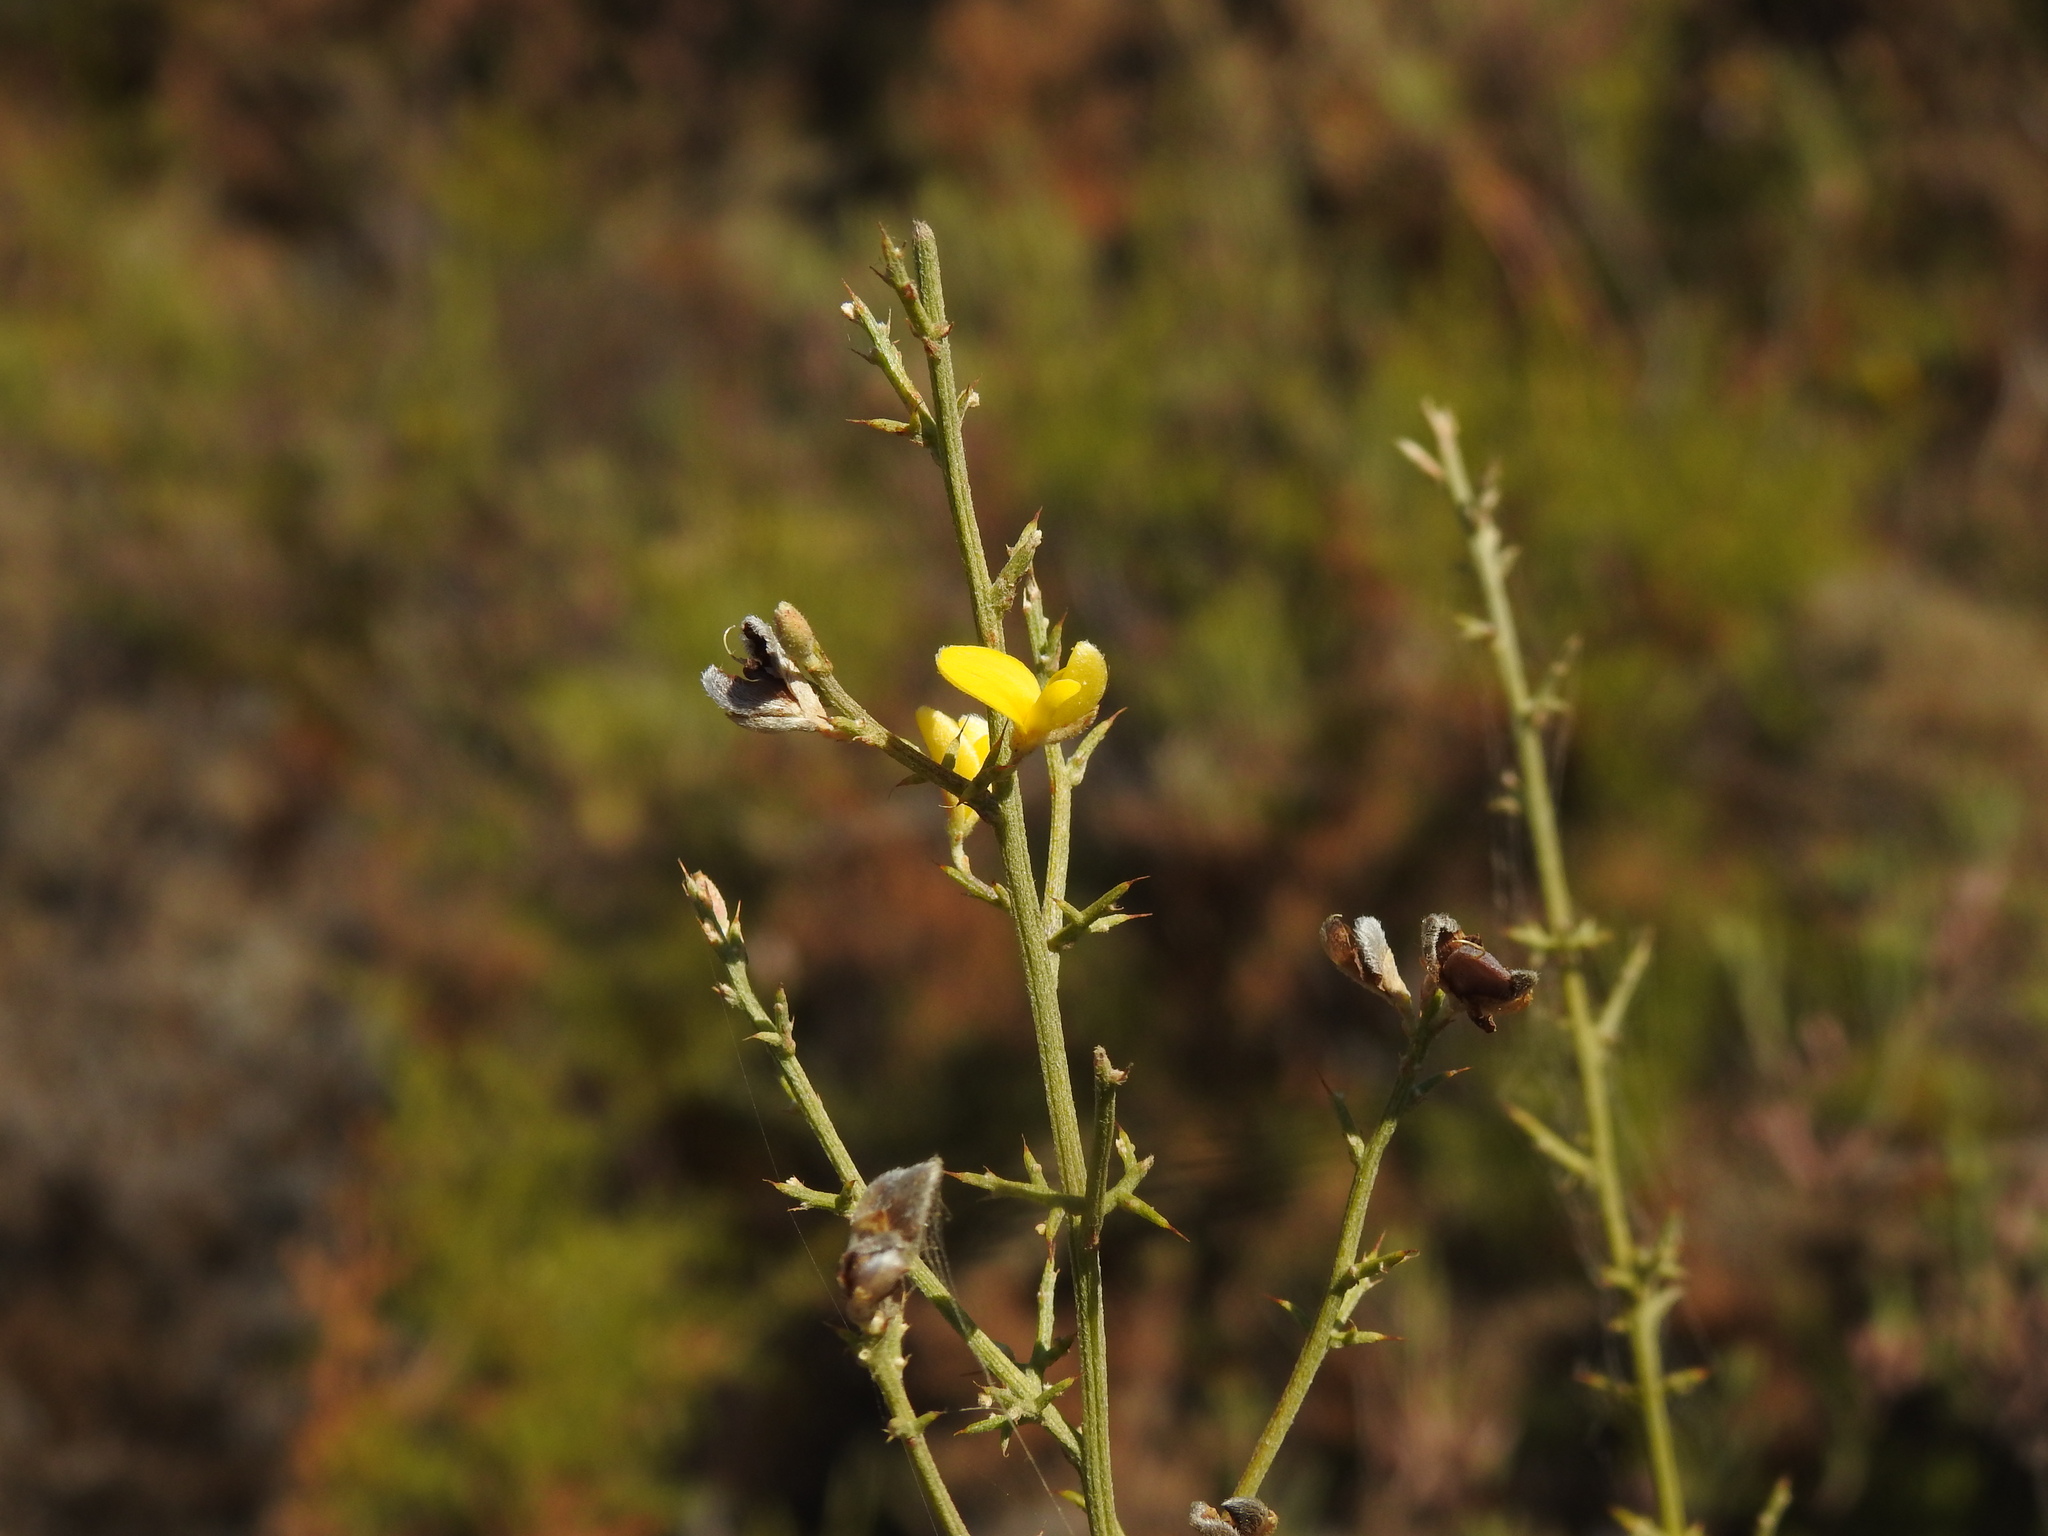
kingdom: Plantae
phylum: Tracheophyta
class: Magnoliopsida
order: Fabales
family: Fabaceae
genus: Stauracanthus
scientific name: Stauracanthus boivinii
